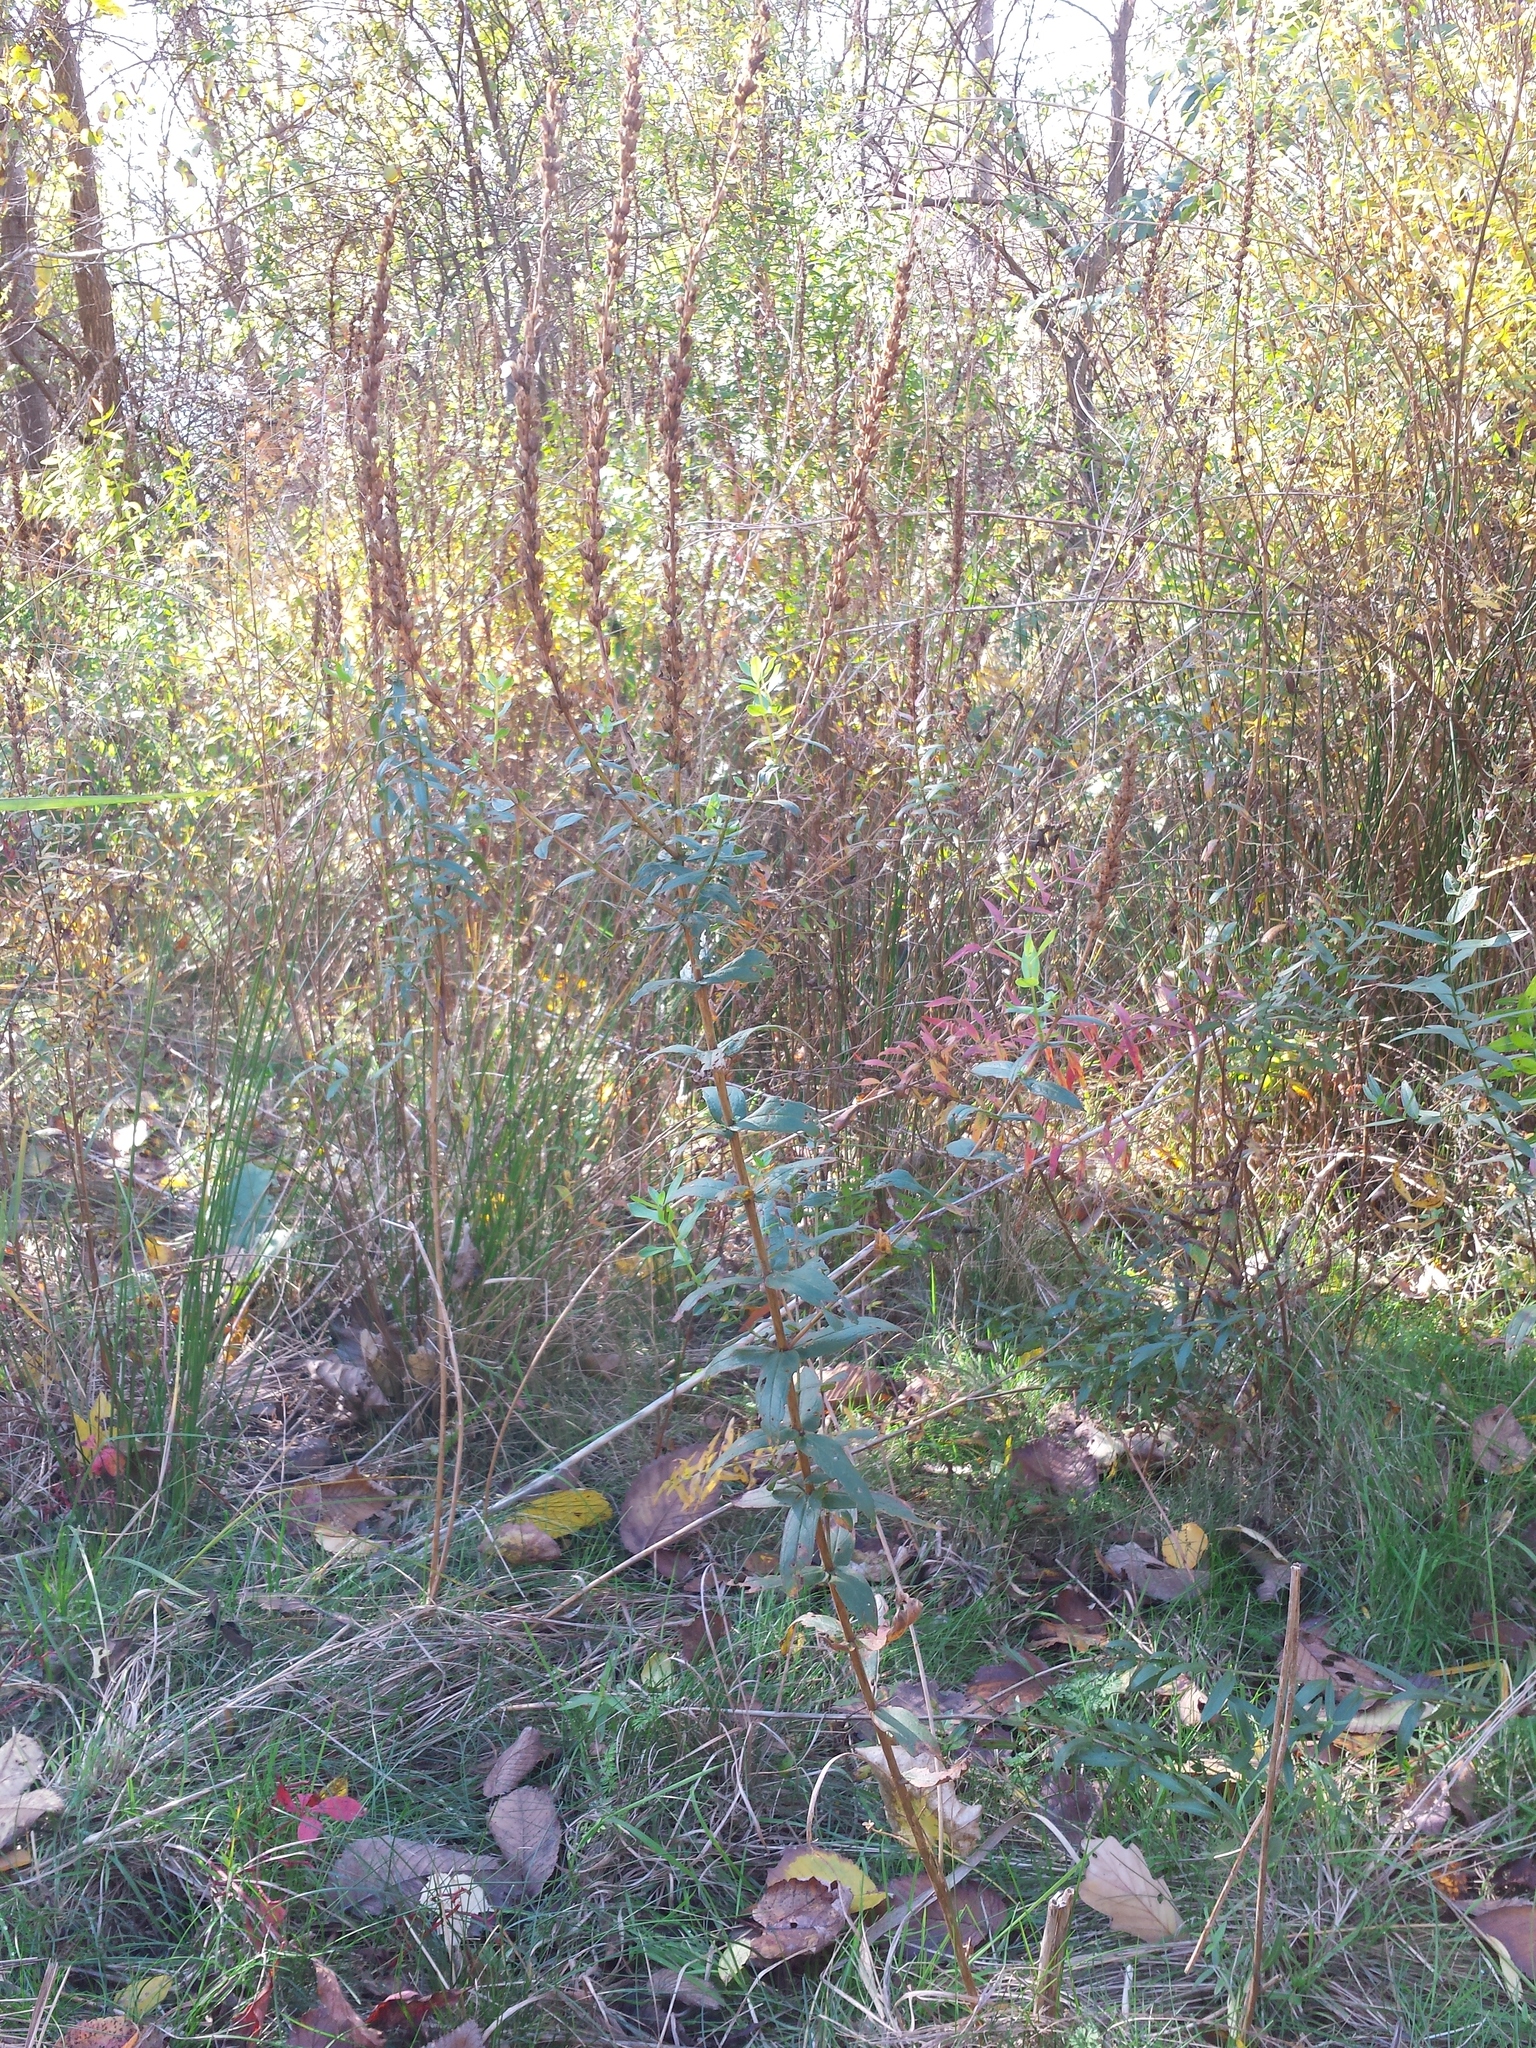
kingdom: Plantae
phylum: Tracheophyta
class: Magnoliopsida
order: Myrtales
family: Lythraceae
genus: Lythrum
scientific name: Lythrum salicaria
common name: Purple loosestrife
